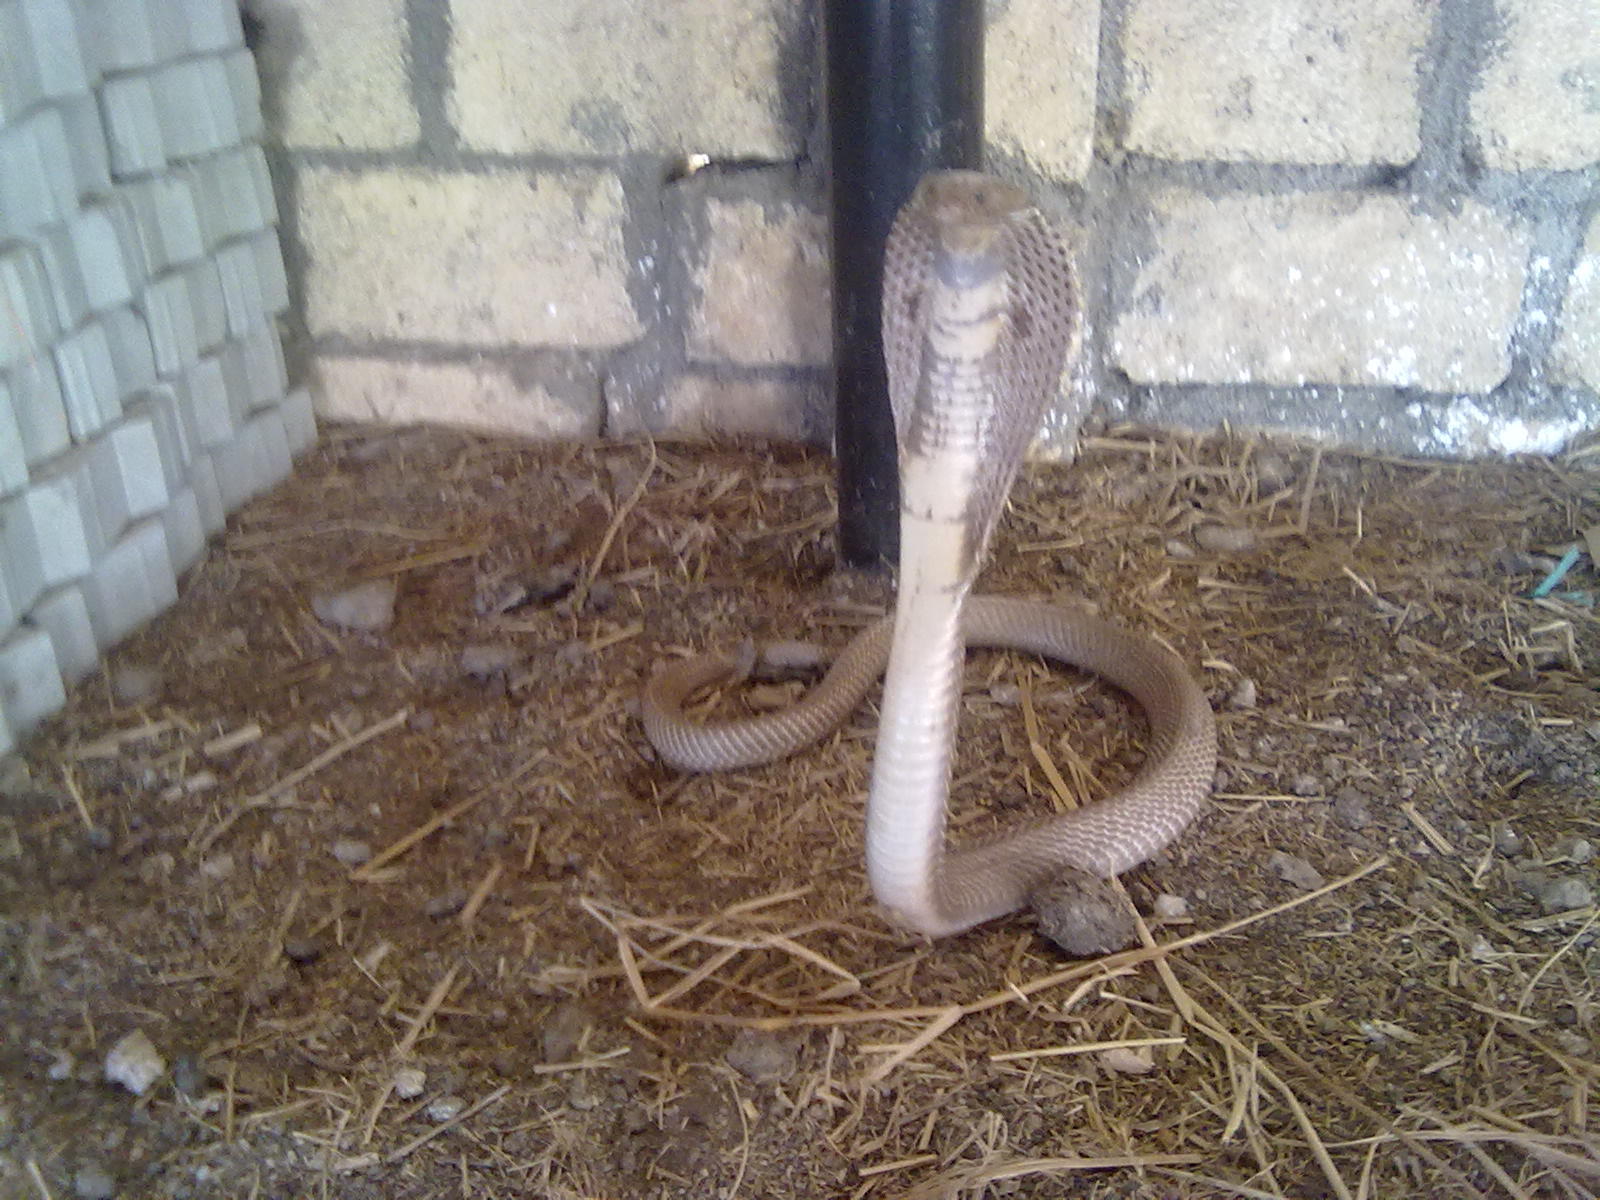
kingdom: Animalia
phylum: Chordata
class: Squamata
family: Elapidae
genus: Naja
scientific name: Naja naja
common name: Indian cobra
